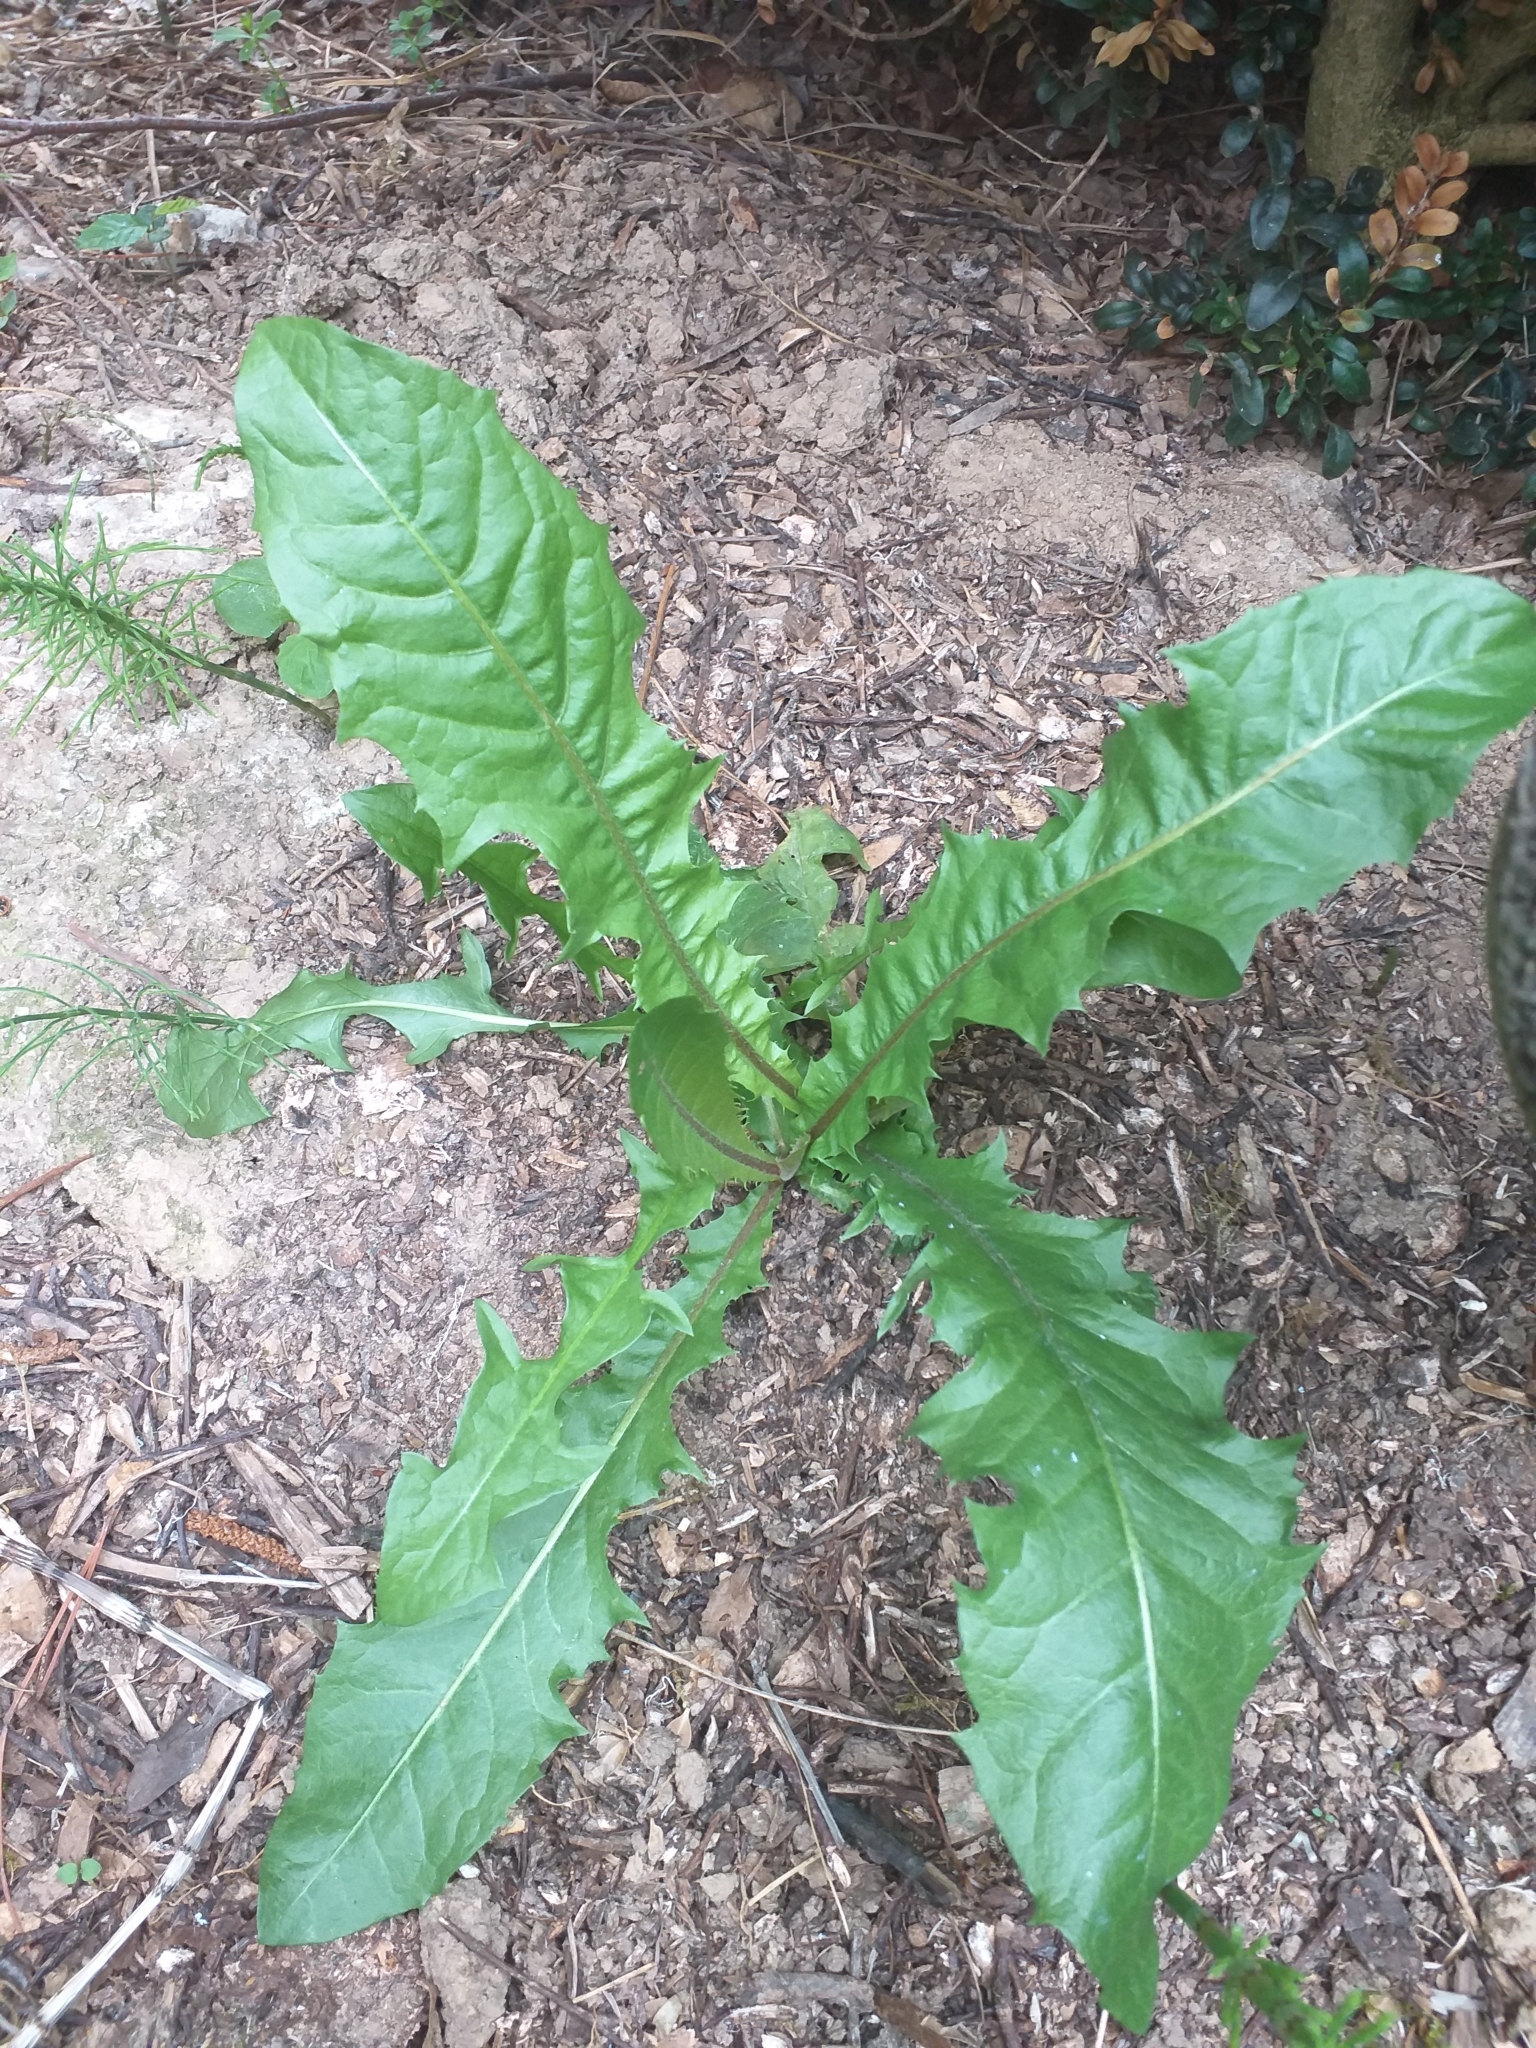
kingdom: Plantae
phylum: Tracheophyta
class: Magnoliopsida
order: Asterales
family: Asteraceae
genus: Taraxacum
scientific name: Taraxacum officinale
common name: Common dandelion
